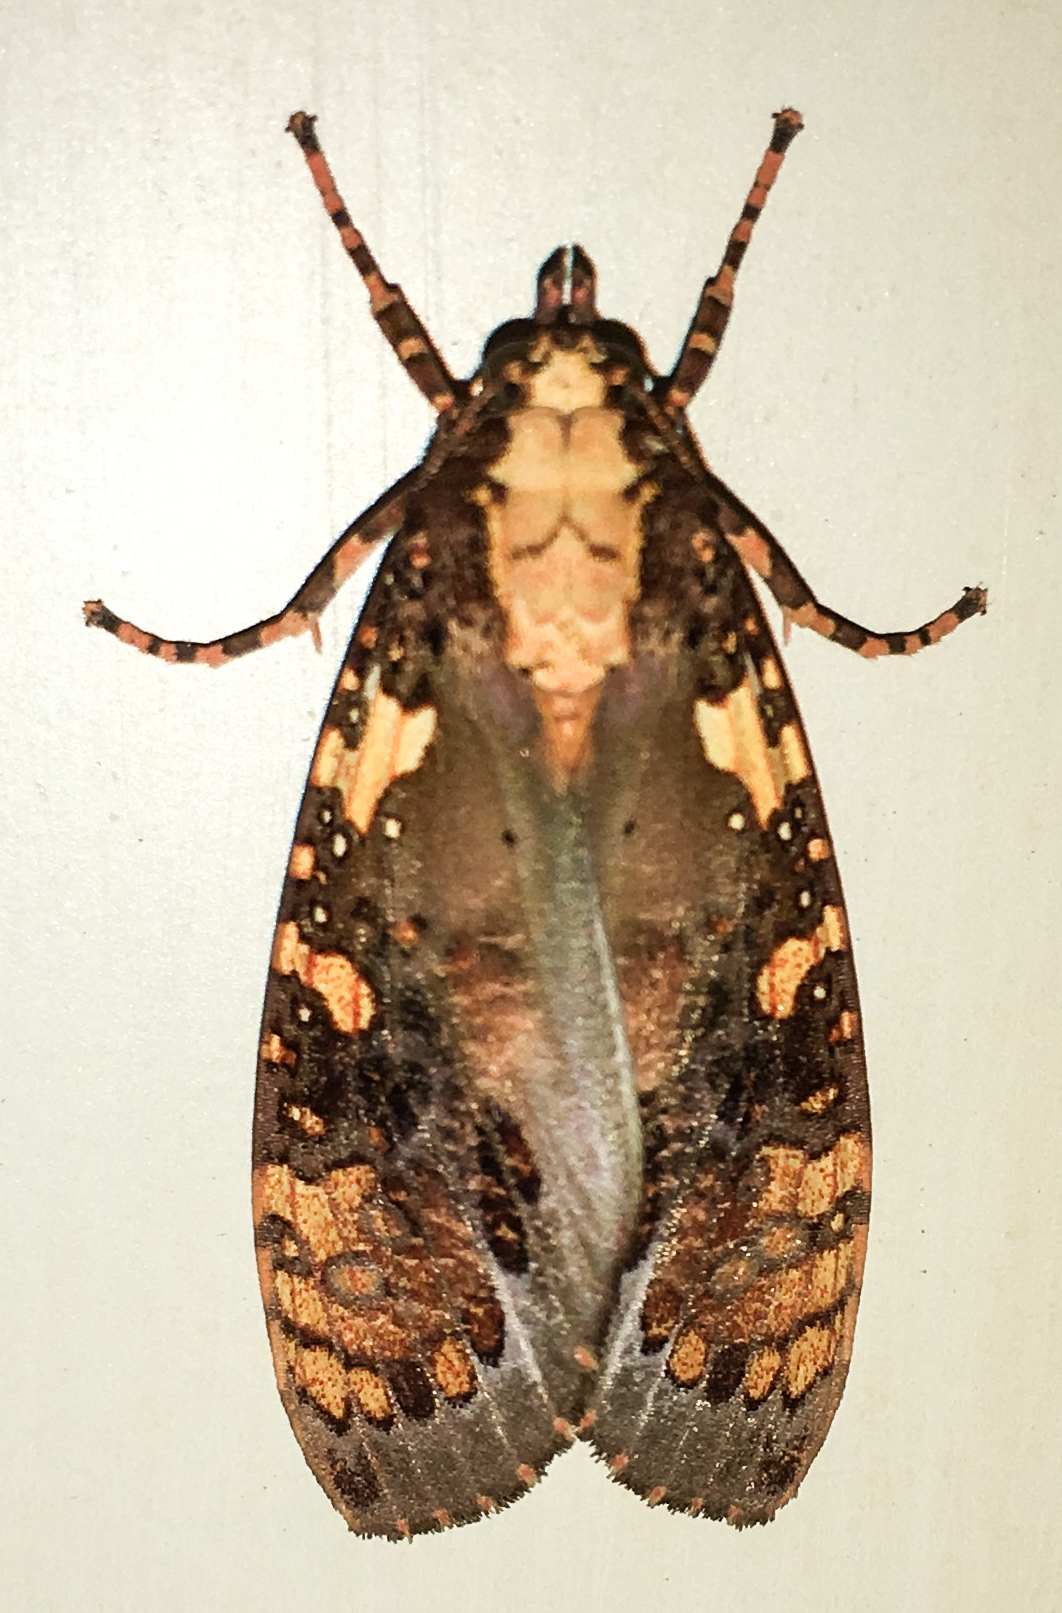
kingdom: Animalia
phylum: Arthropoda
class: Insecta
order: Lepidoptera
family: Erebidae
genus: Cresera
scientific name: Cresera ilus
